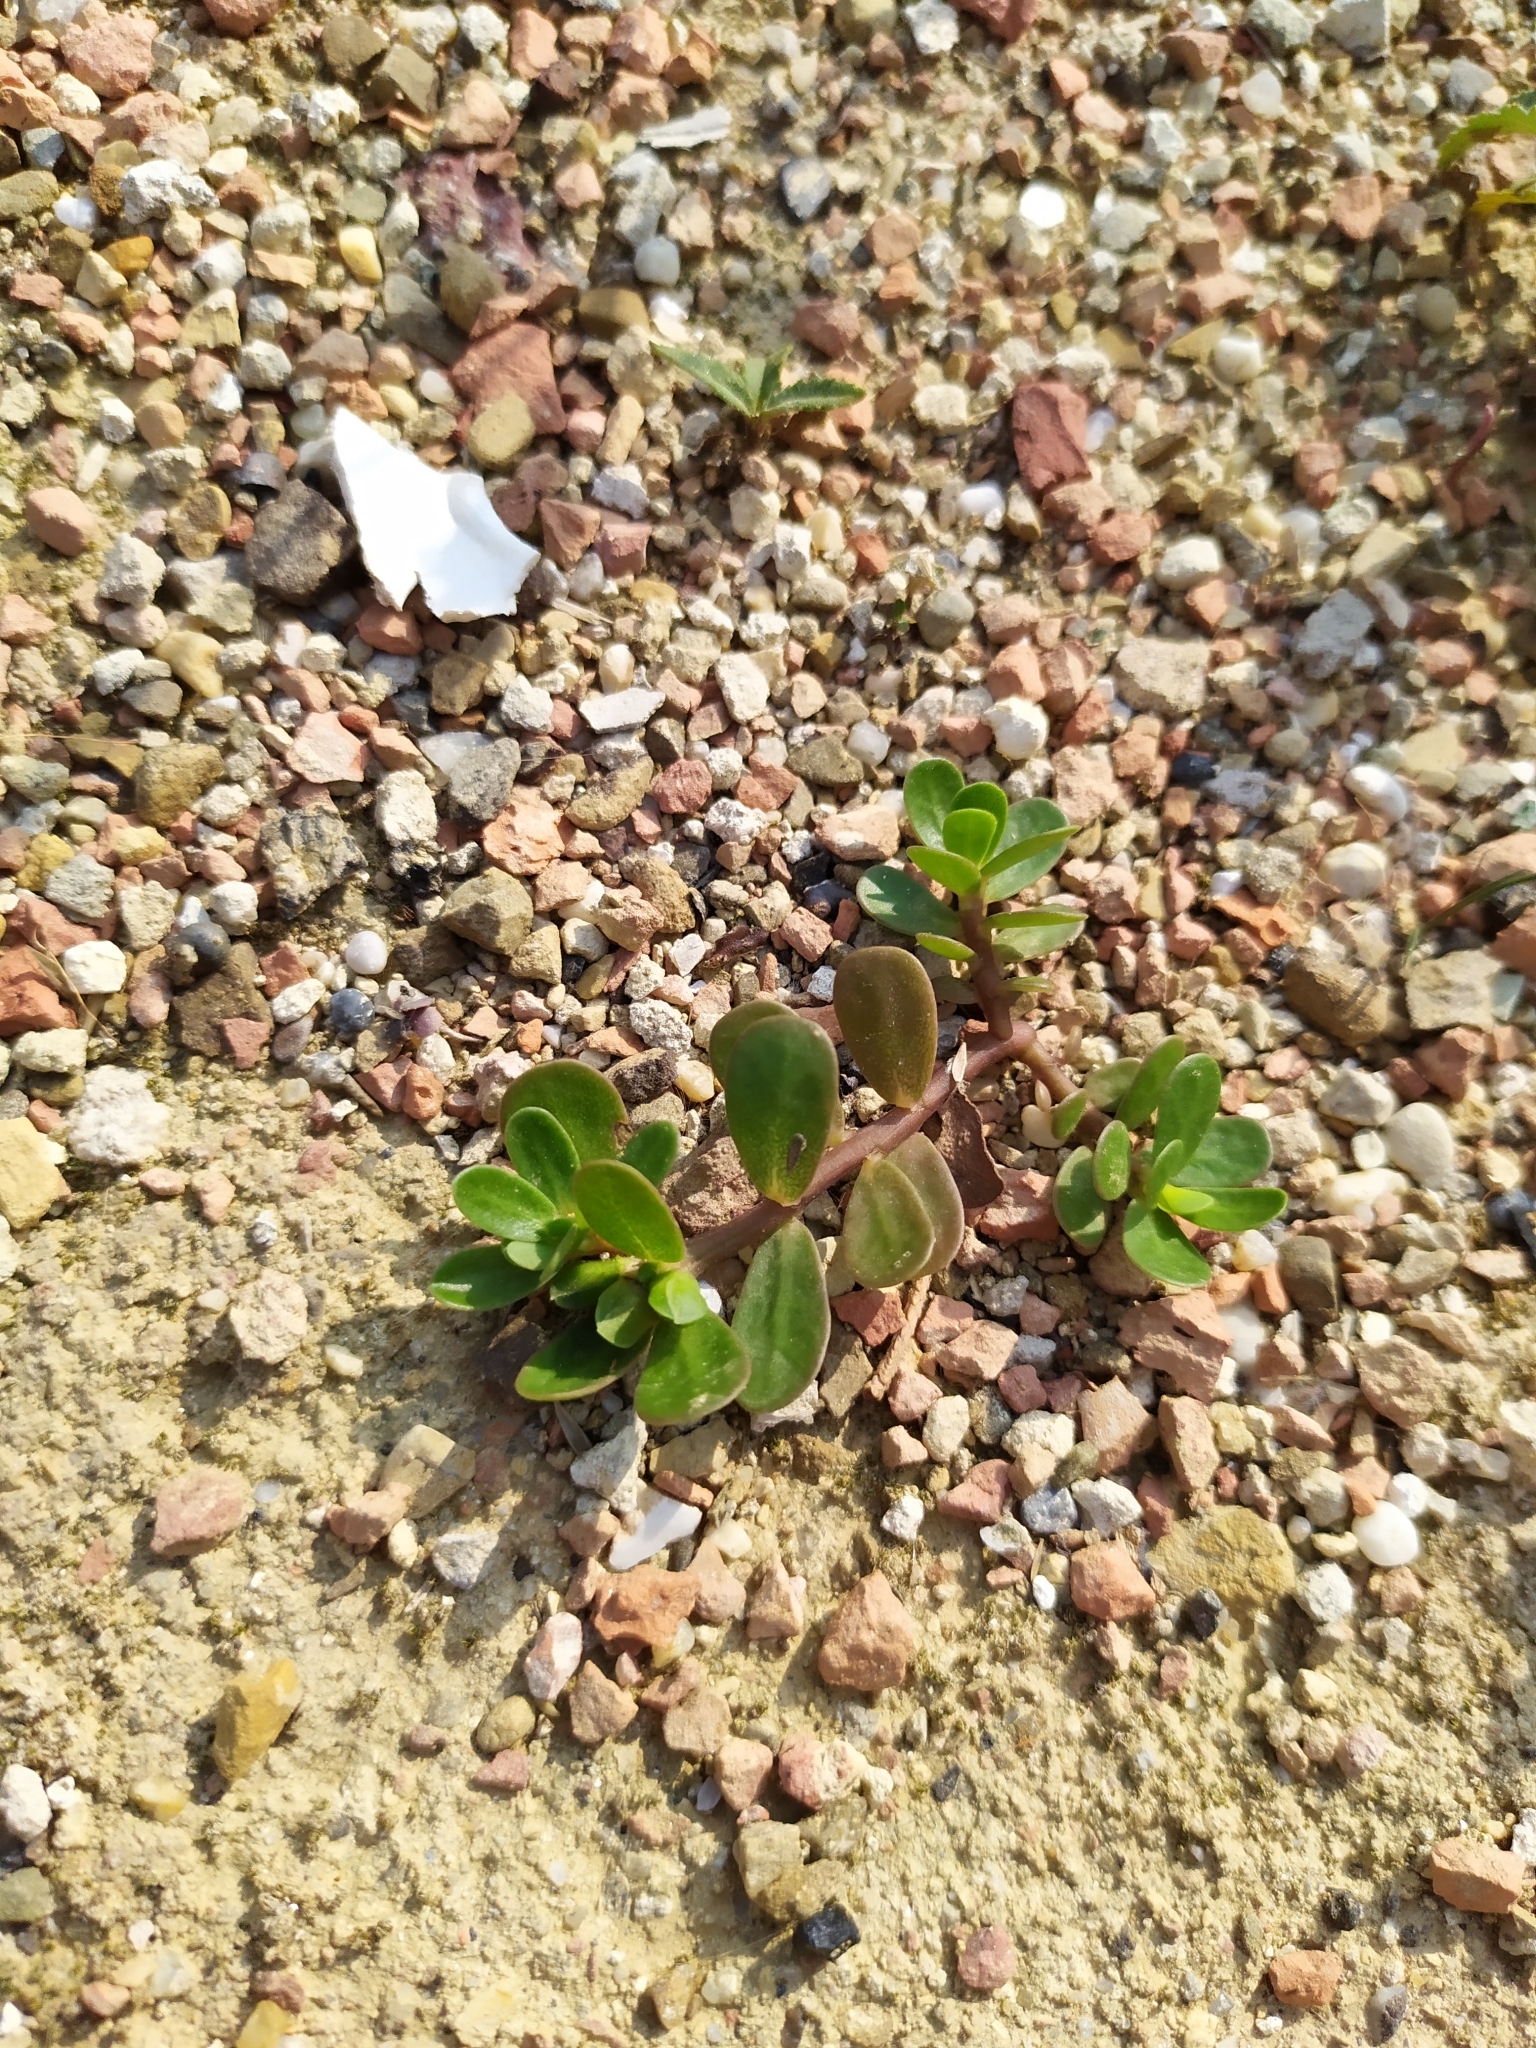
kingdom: Plantae
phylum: Tracheophyta
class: Magnoliopsida
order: Caryophyllales
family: Portulacaceae
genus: Portulaca
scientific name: Portulaca oleracea
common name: Common purslane
